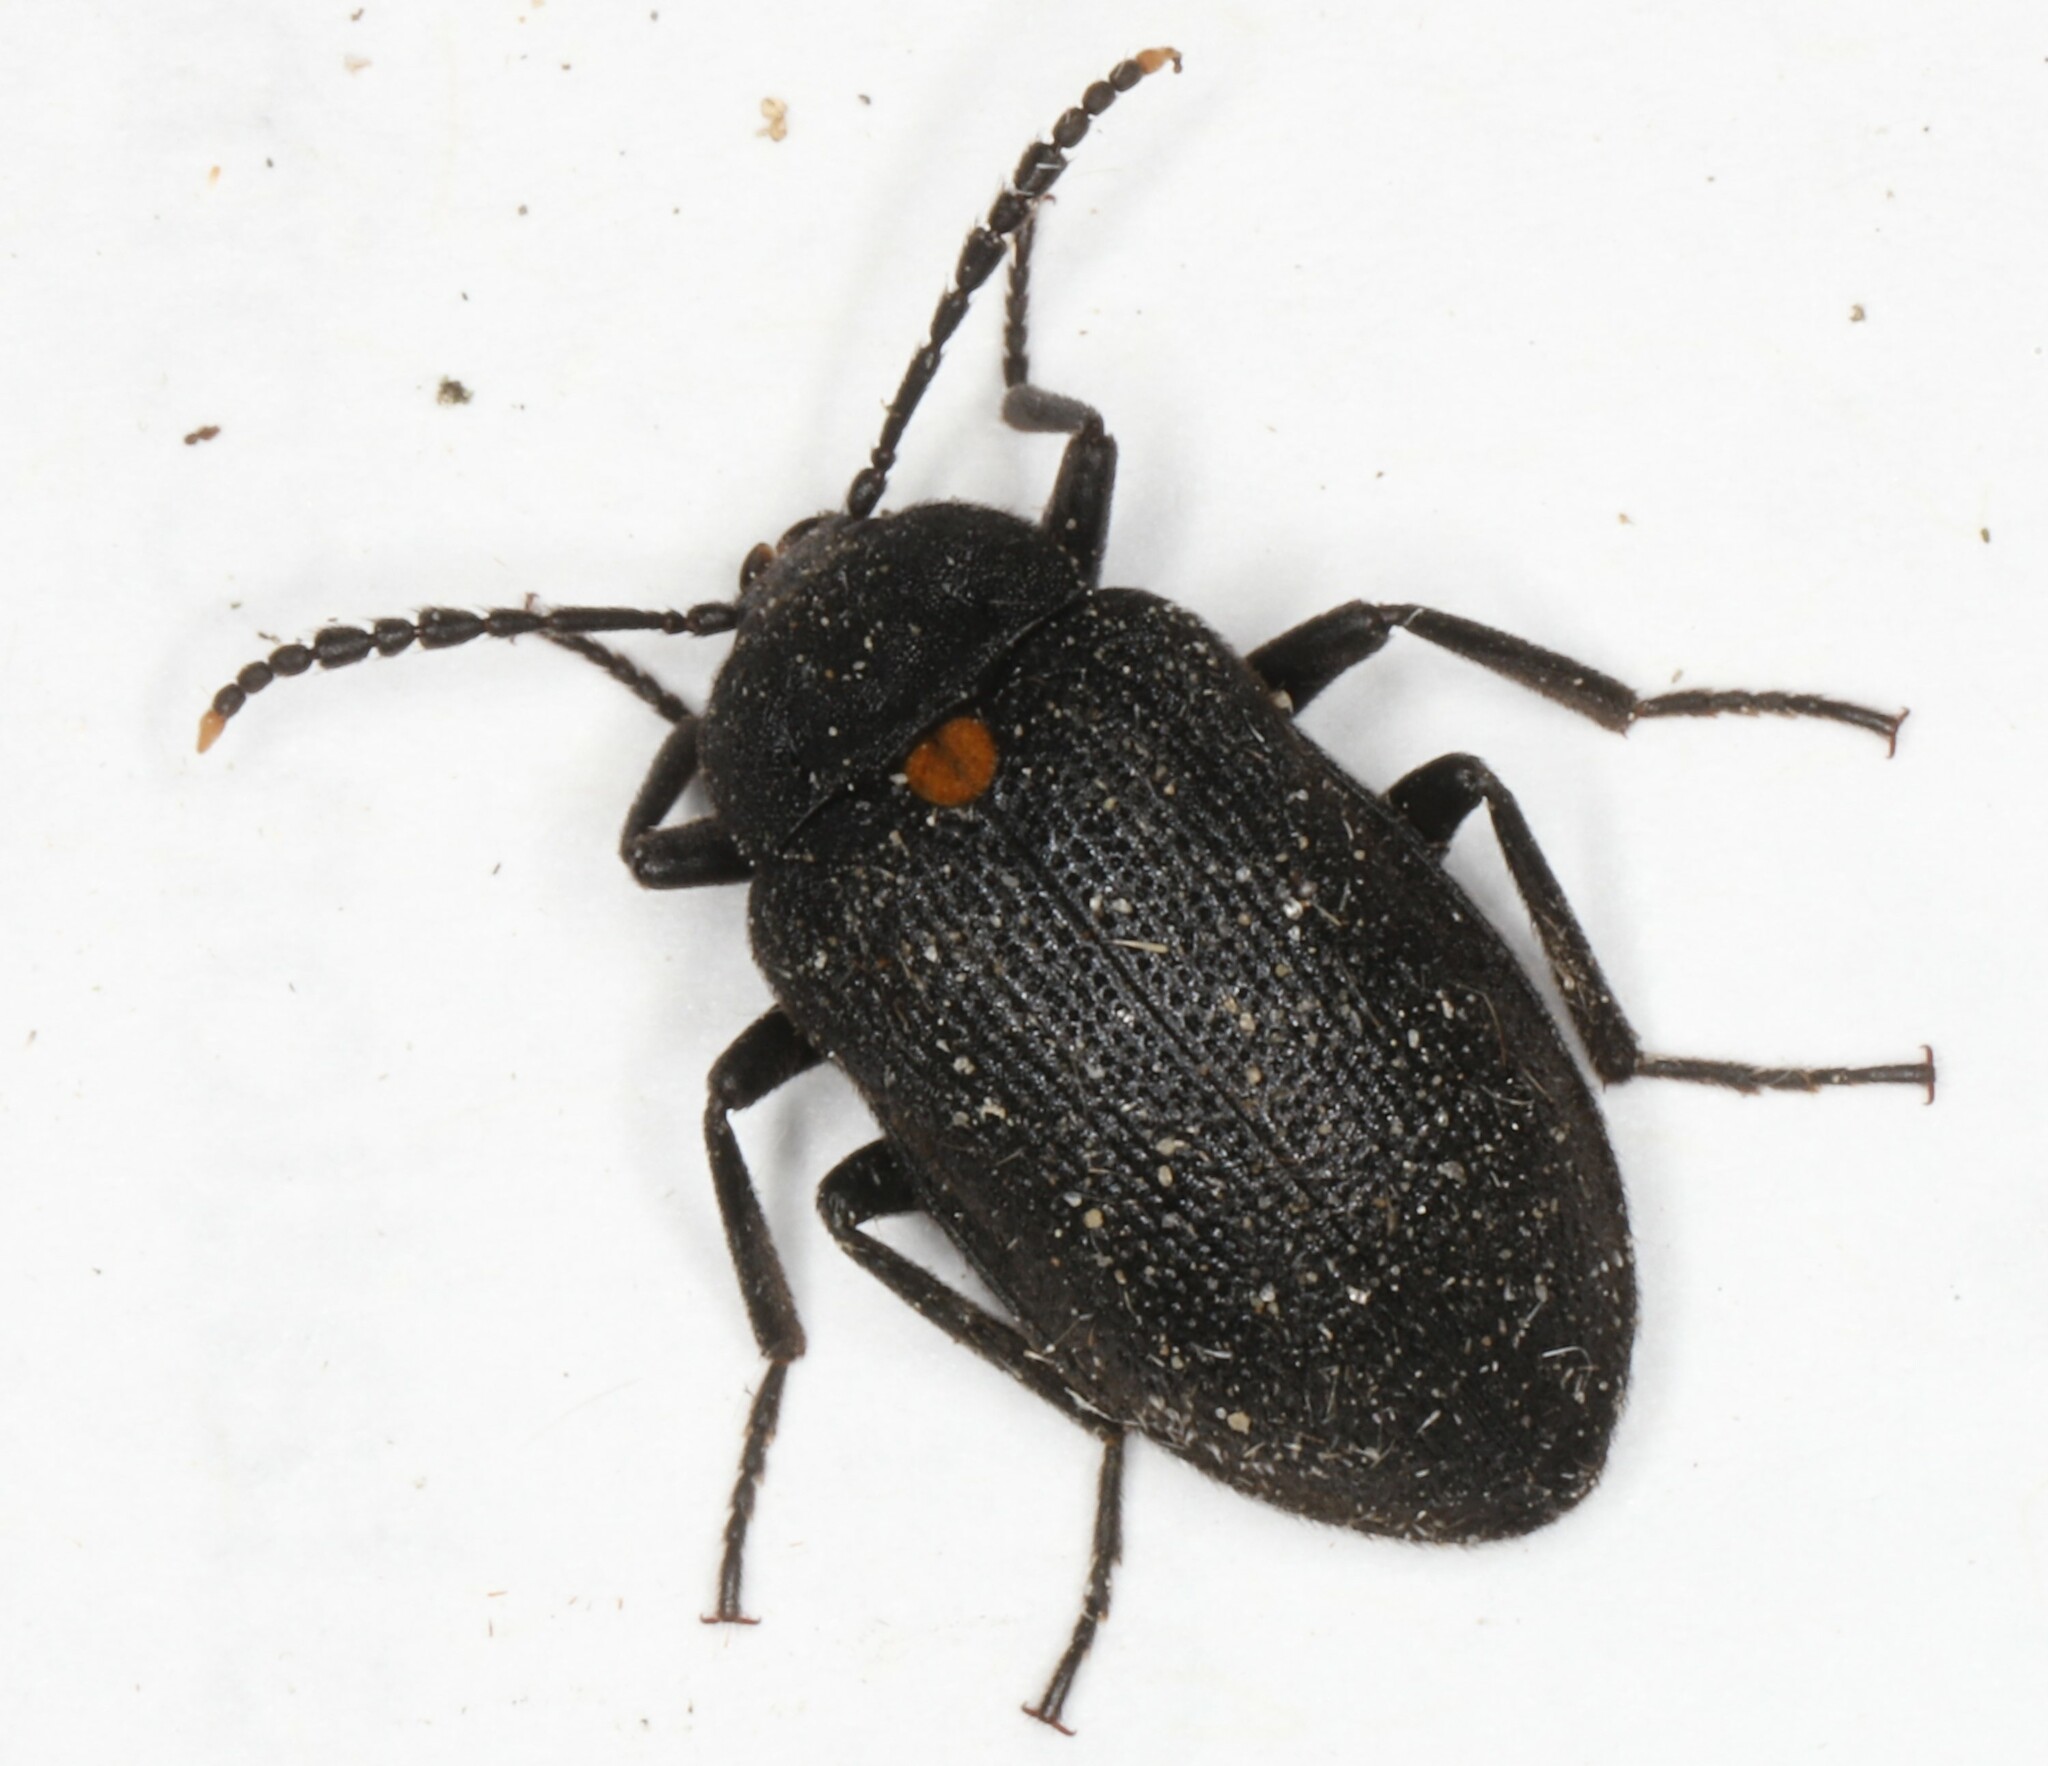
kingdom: Animalia
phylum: Arthropoda
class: Insecta
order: Coleoptera
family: Tetratomidae
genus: Penthe
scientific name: Penthe obliquata
